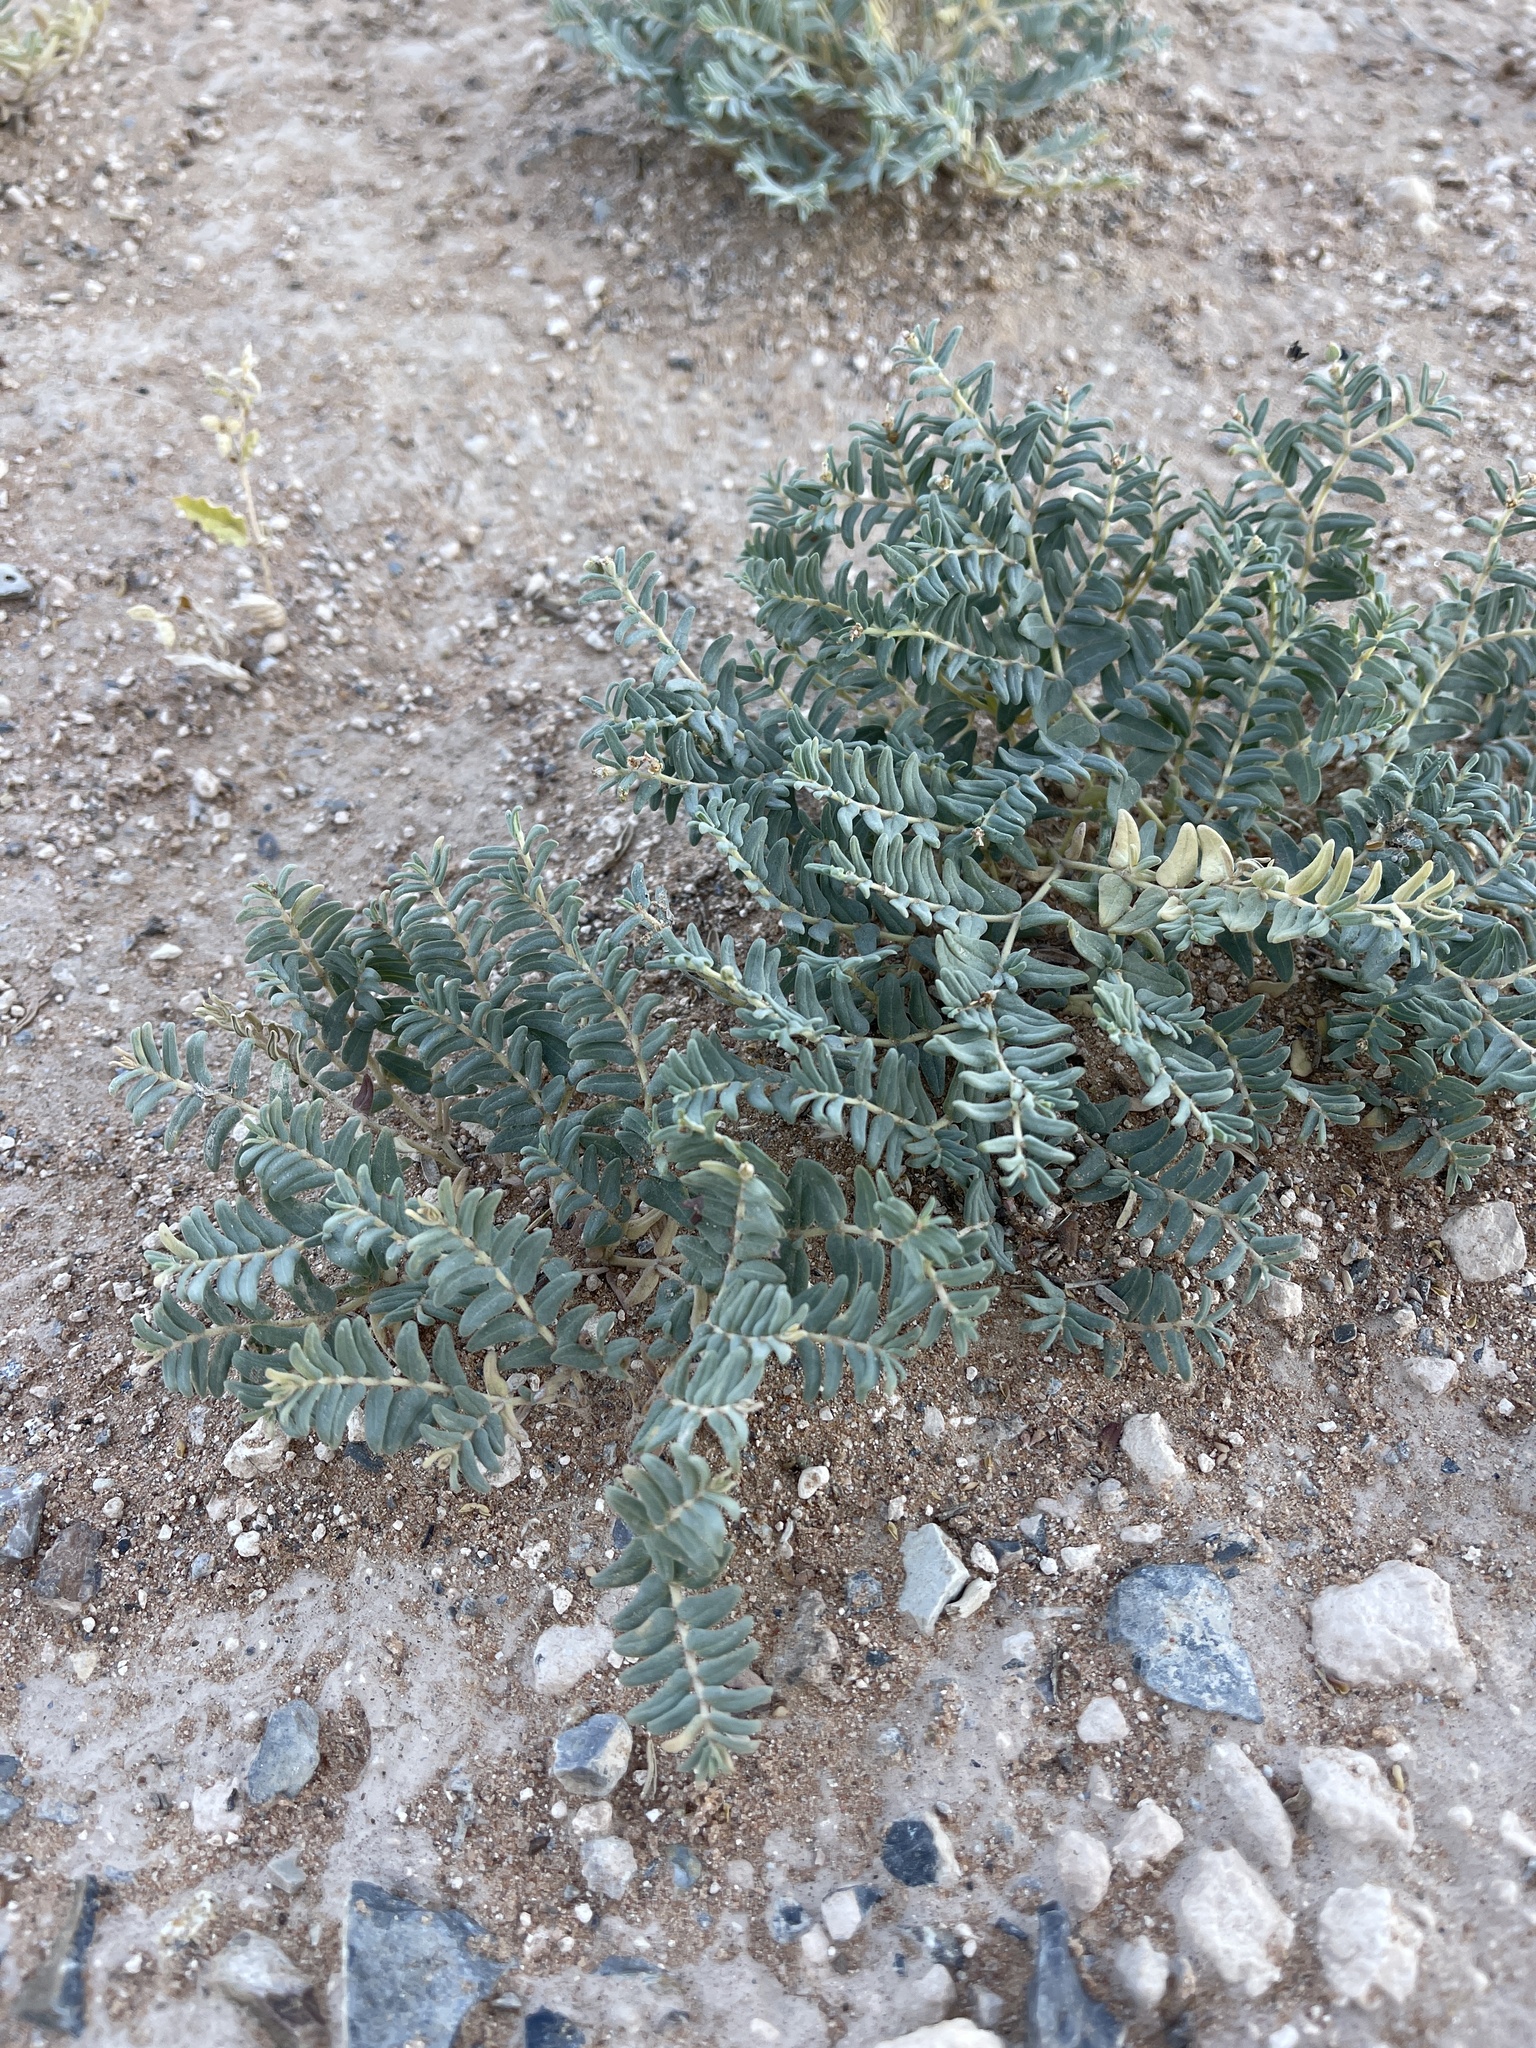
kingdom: Plantae
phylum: Tracheophyta
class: Magnoliopsida
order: Malpighiales
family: Euphorbiaceae
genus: Euphorbia
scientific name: Euphorbia lata
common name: Hoary euphorbia
